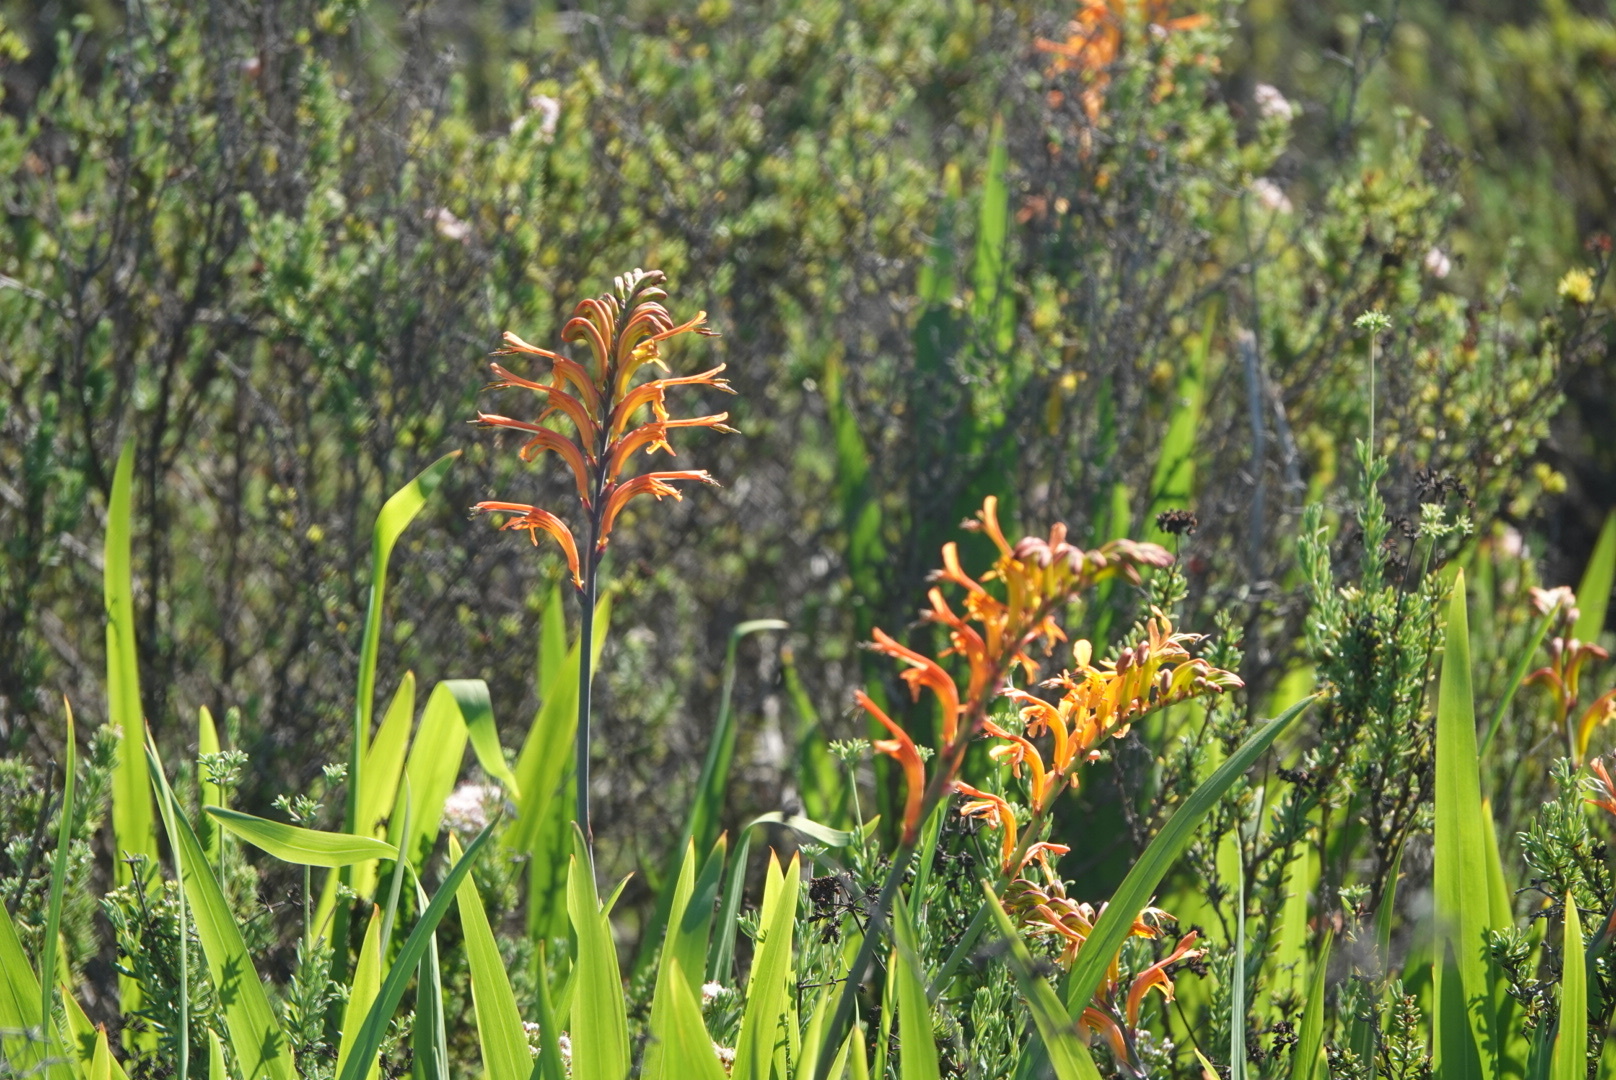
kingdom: Plantae
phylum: Tracheophyta
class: Liliopsida
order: Asparagales
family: Iridaceae
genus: Chasmanthe
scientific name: Chasmanthe floribunda
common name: African cornflag
